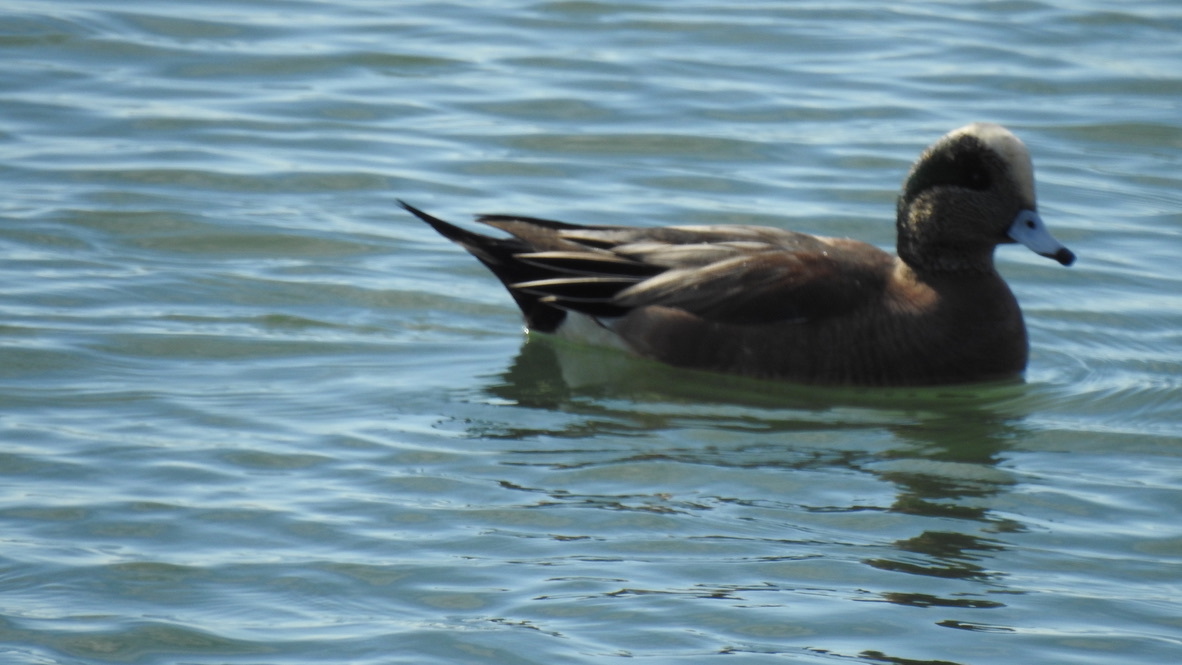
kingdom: Animalia
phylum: Chordata
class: Aves
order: Anseriformes
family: Anatidae
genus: Mareca
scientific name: Mareca americana
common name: American wigeon
